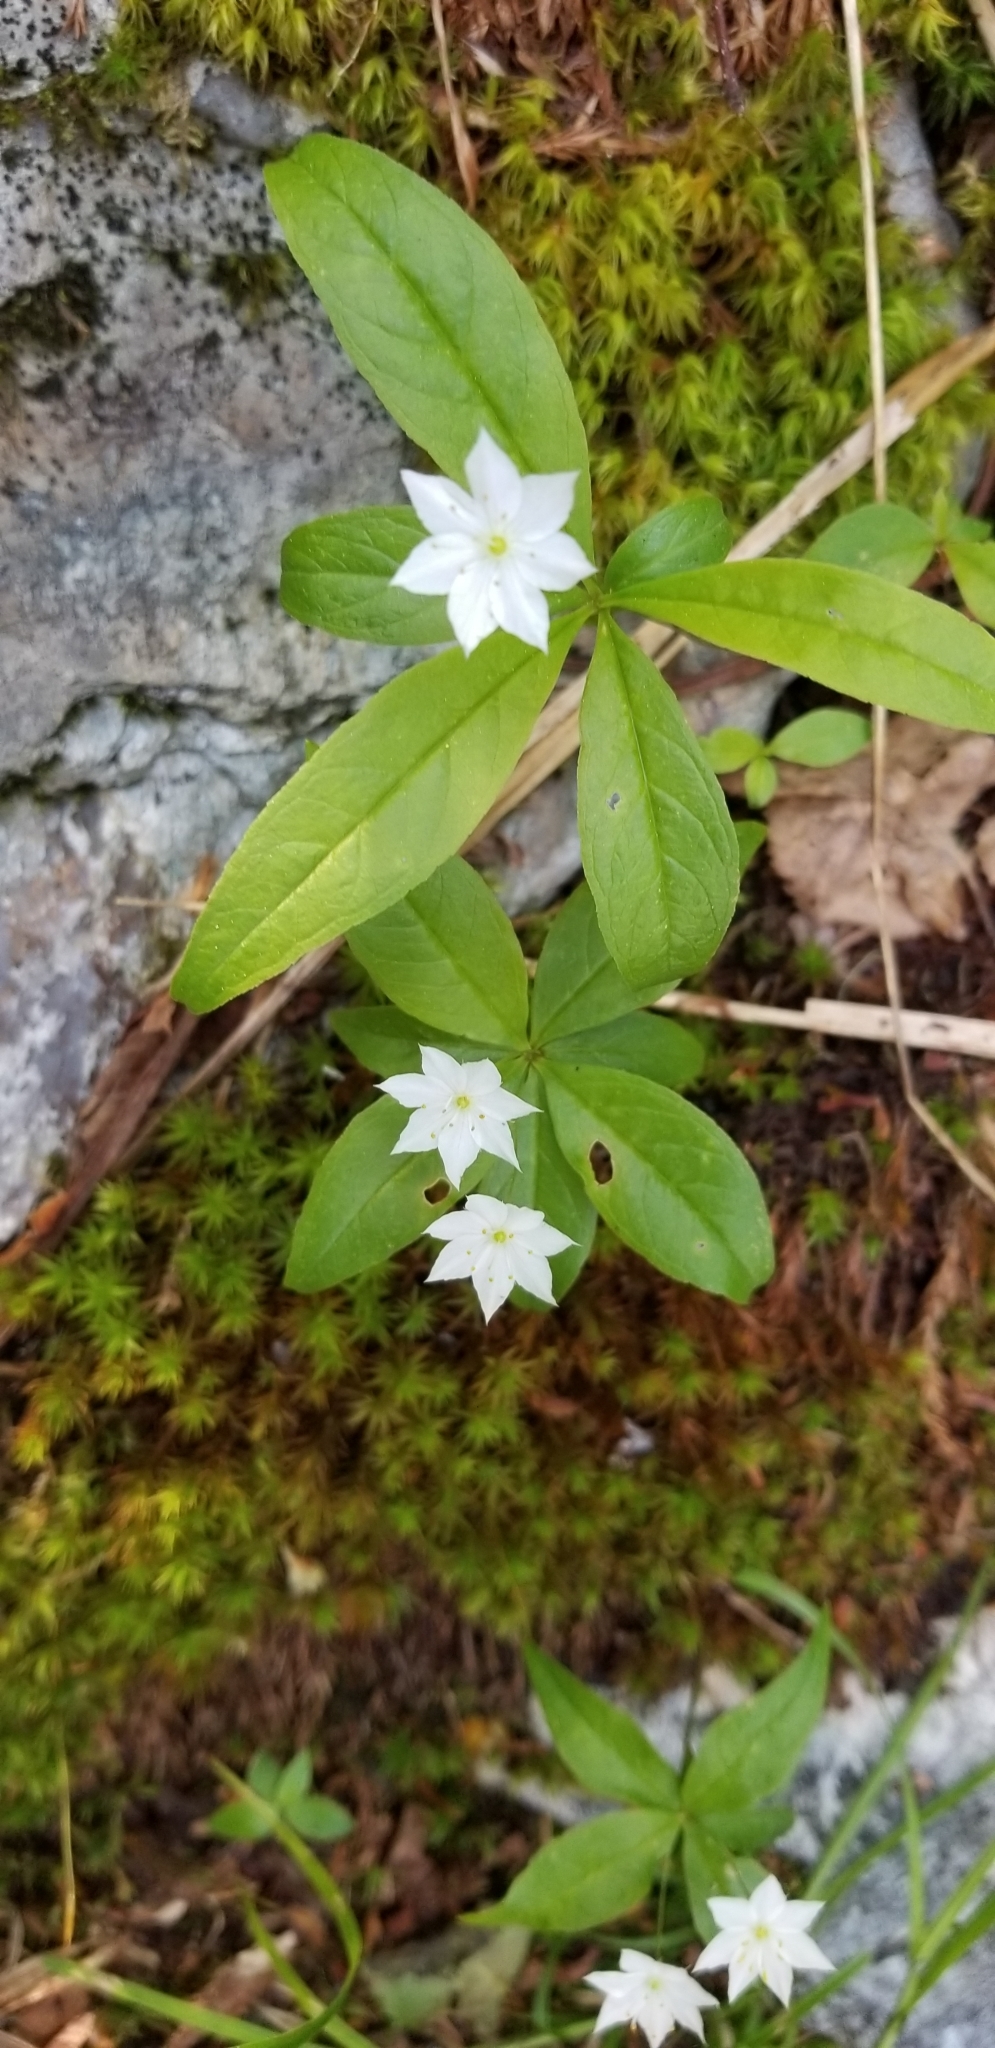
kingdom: Plantae
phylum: Tracheophyta
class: Magnoliopsida
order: Ericales
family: Primulaceae
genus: Lysimachia
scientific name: Lysimachia borealis
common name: American starflower
